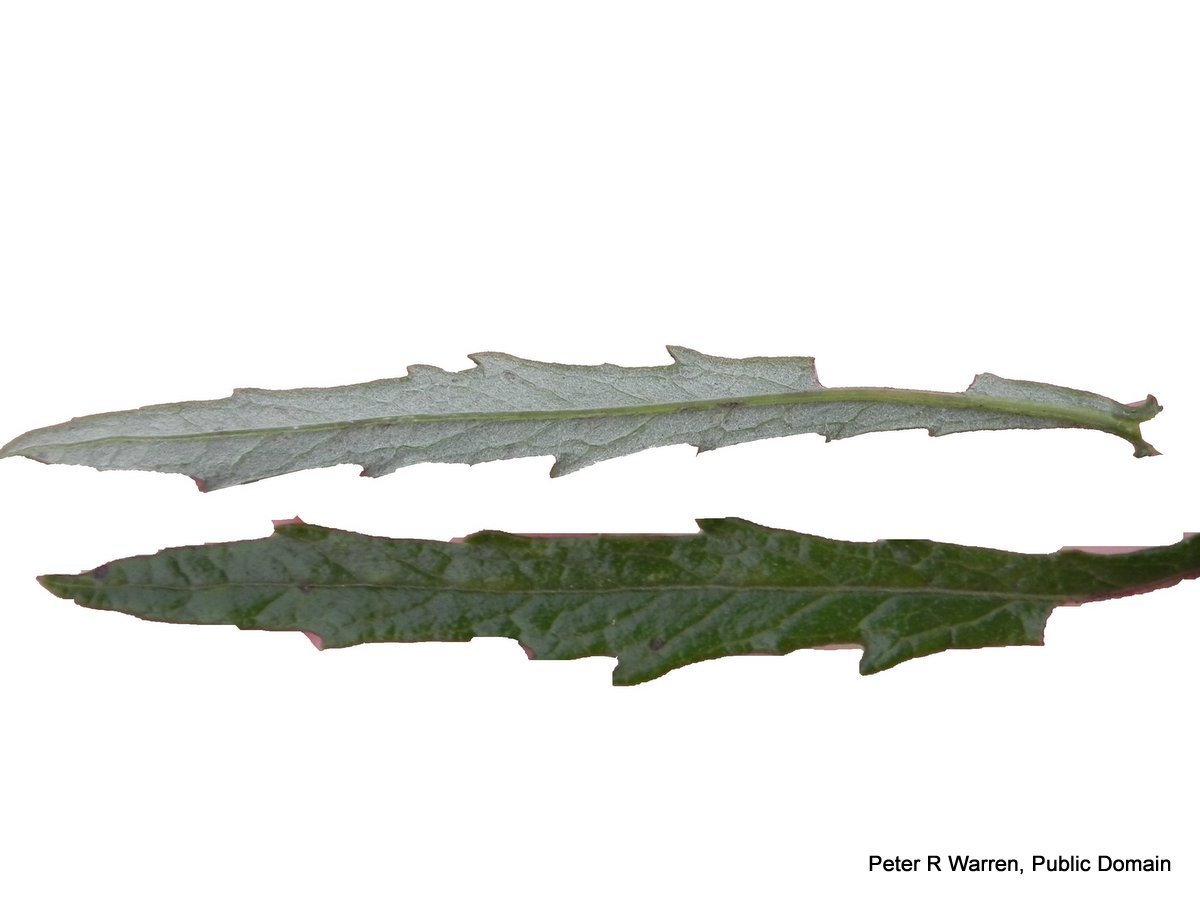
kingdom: Plantae
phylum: Tracheophyta
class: Magnoliopsida
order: Asterales
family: Asteraceae
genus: Senecio
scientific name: Senecio polyanthemoides
